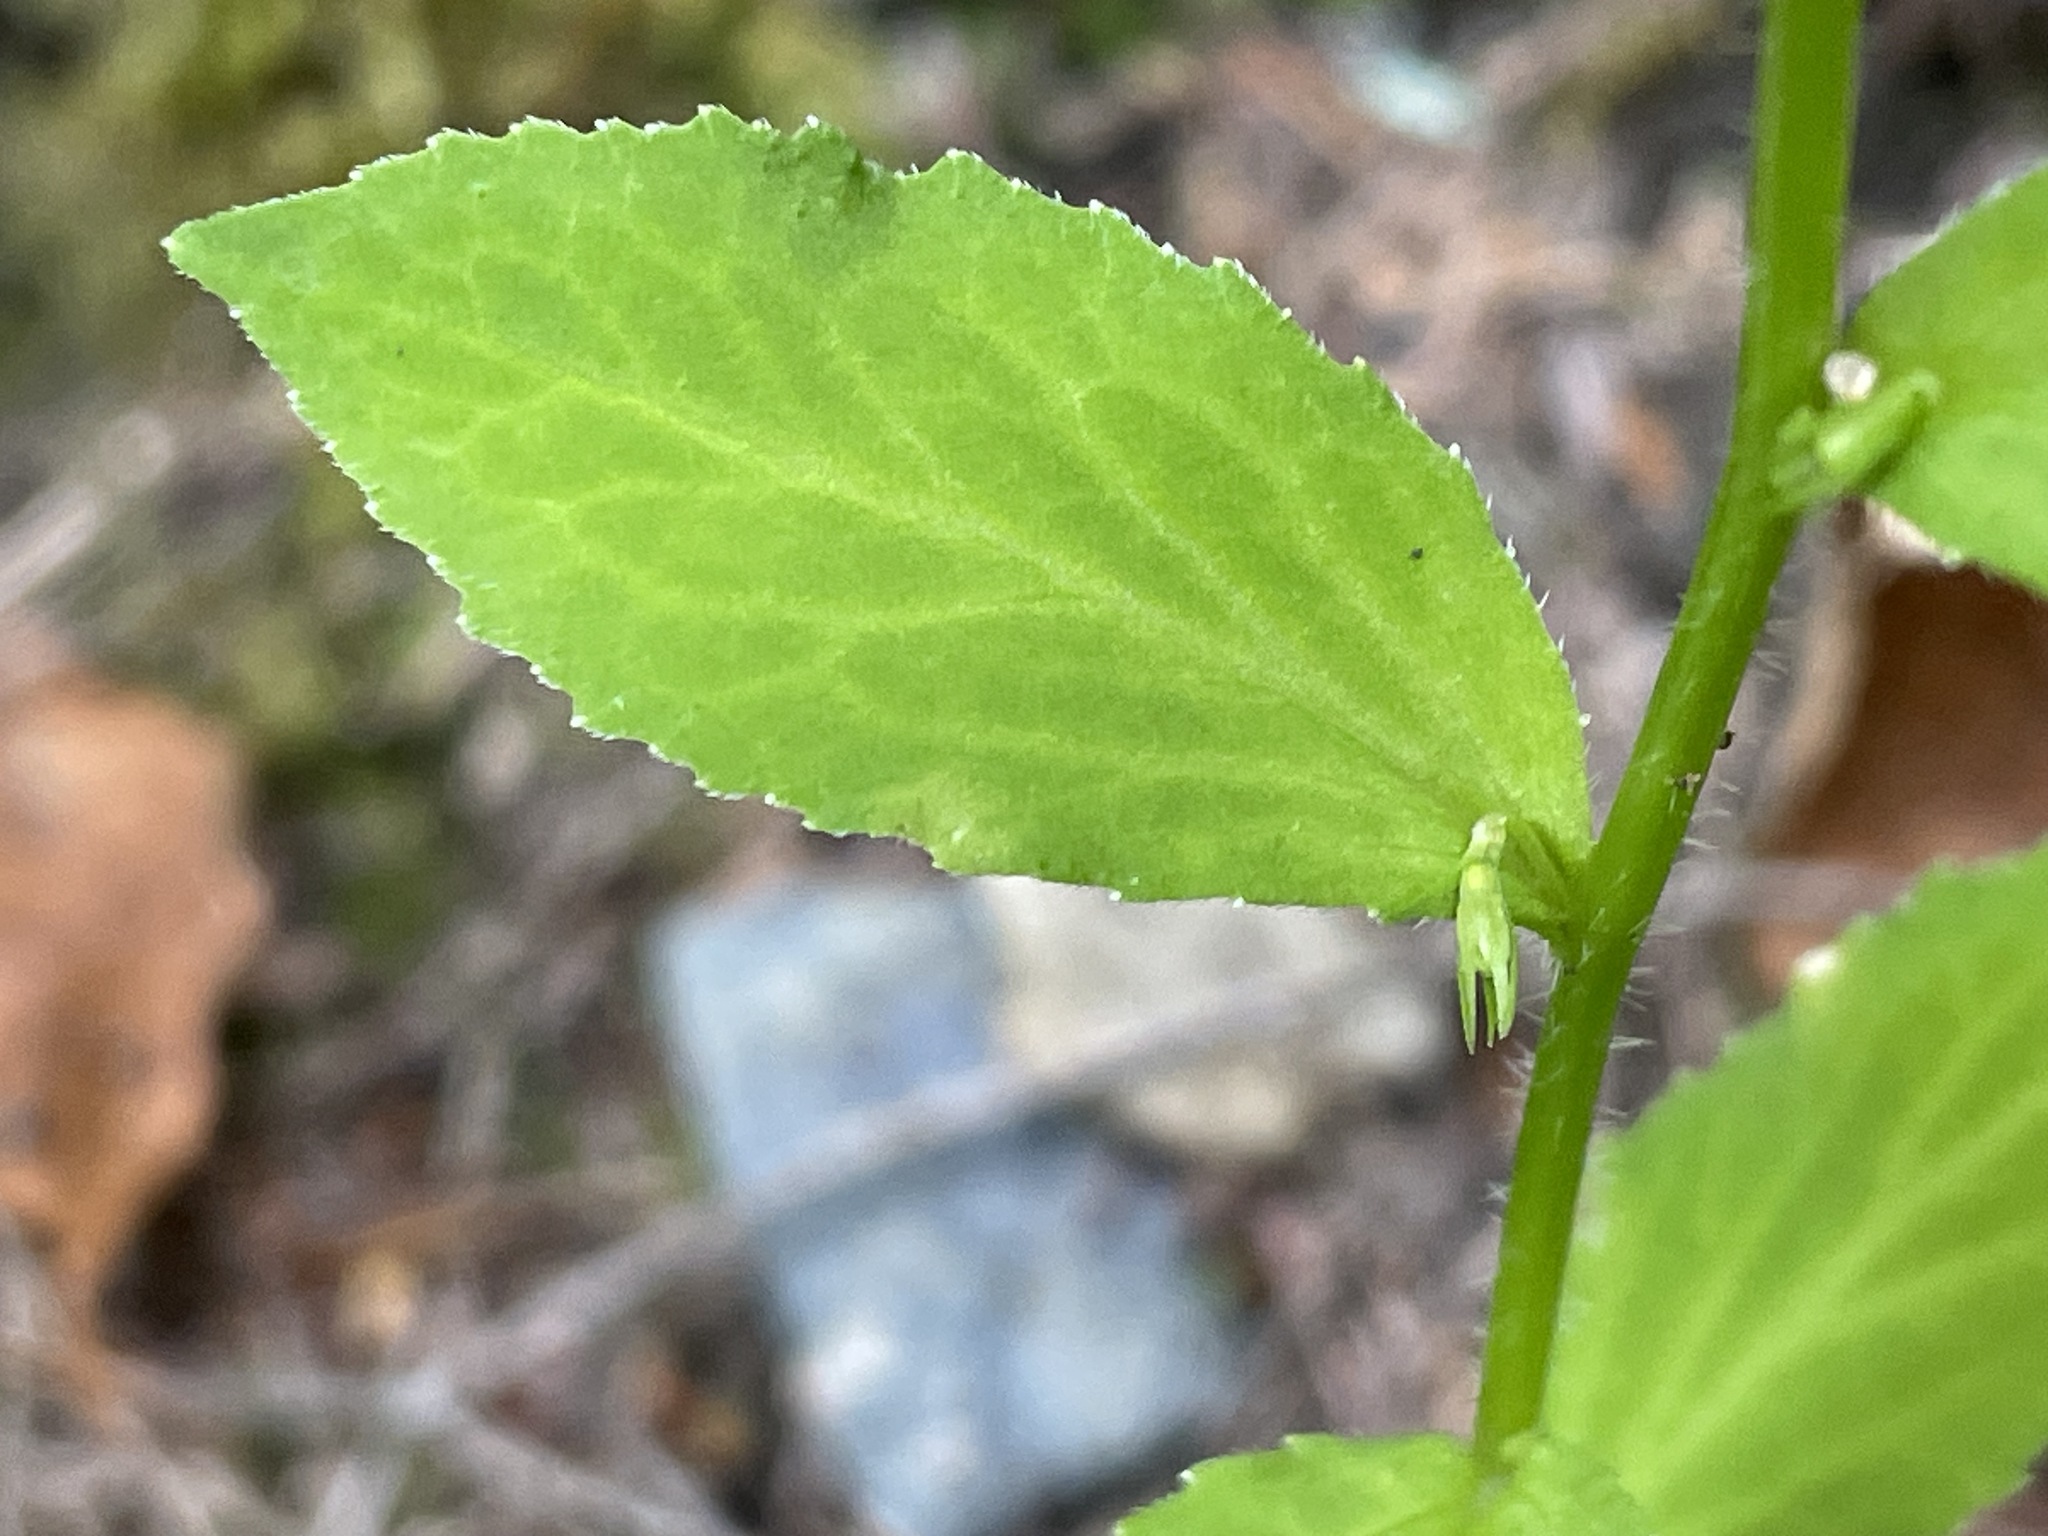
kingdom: Plantae
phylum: Tracheophyta
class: Magnoliopsida
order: Asterales
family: Campanulaceae
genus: Lobelia
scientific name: Lobelia inflata
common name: Indian tobacco
